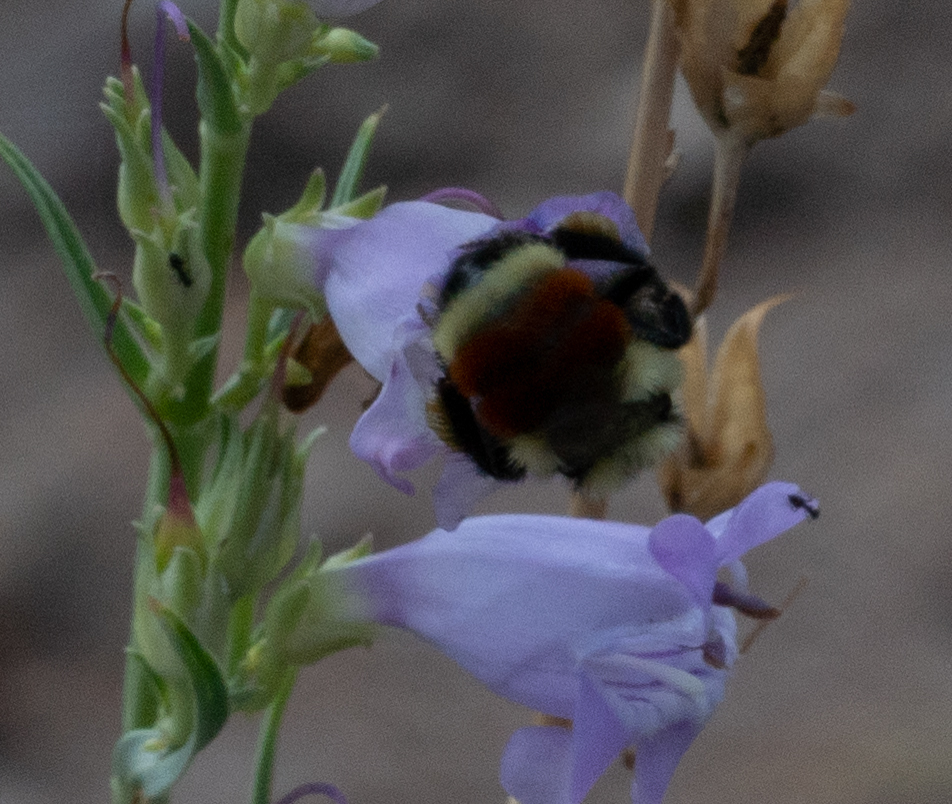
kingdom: Animalia
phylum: Arthropoda
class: Insecta
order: Hymenoptera
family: Apidae
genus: Bombus
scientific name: Bombus huntii
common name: Hunt bumble bee
